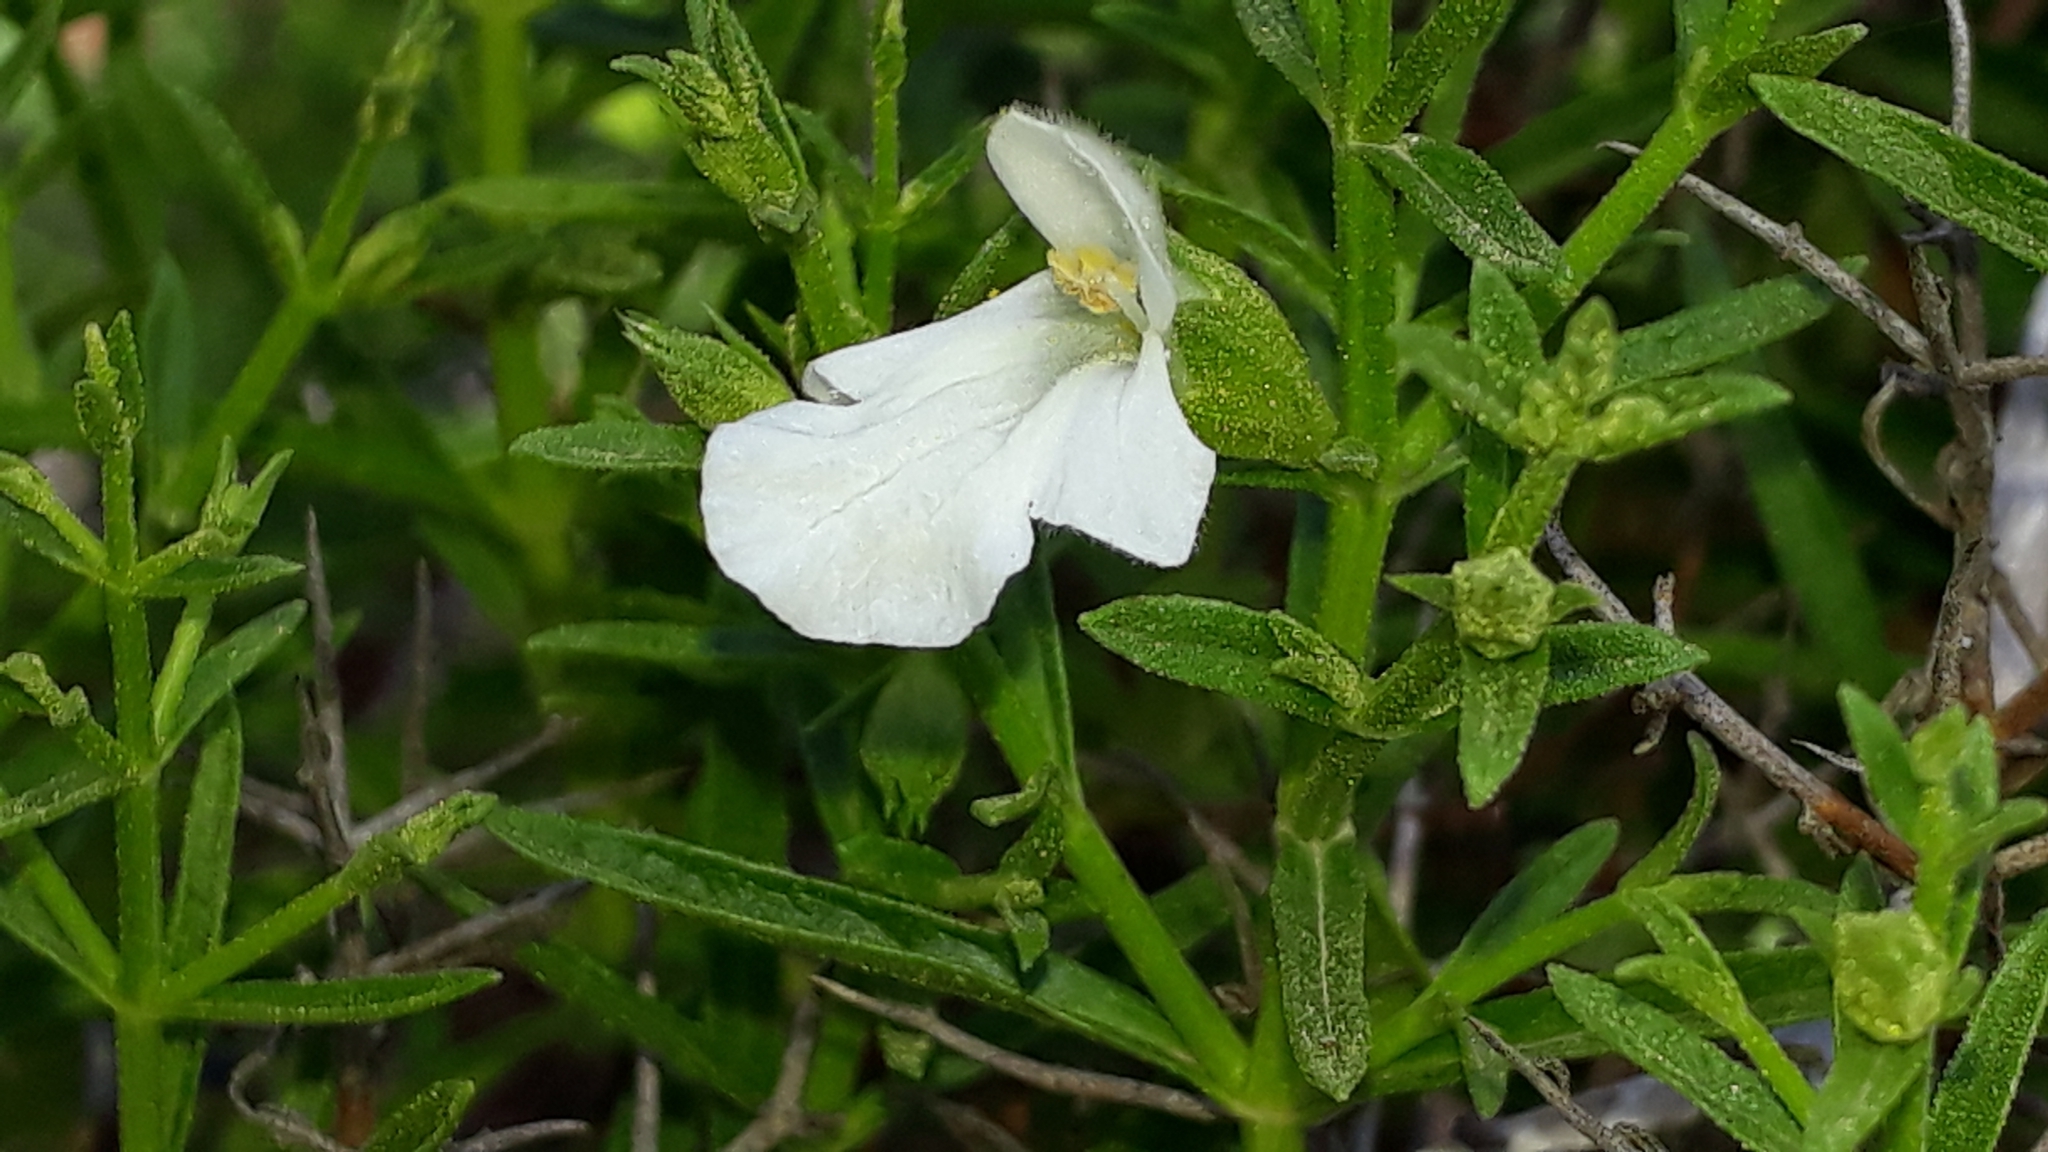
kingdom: Plantae
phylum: Tracheophyta
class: Magnoliopsida
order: Lamiales
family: Lamiaceae
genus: Stachys
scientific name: Stachys glutinosa
